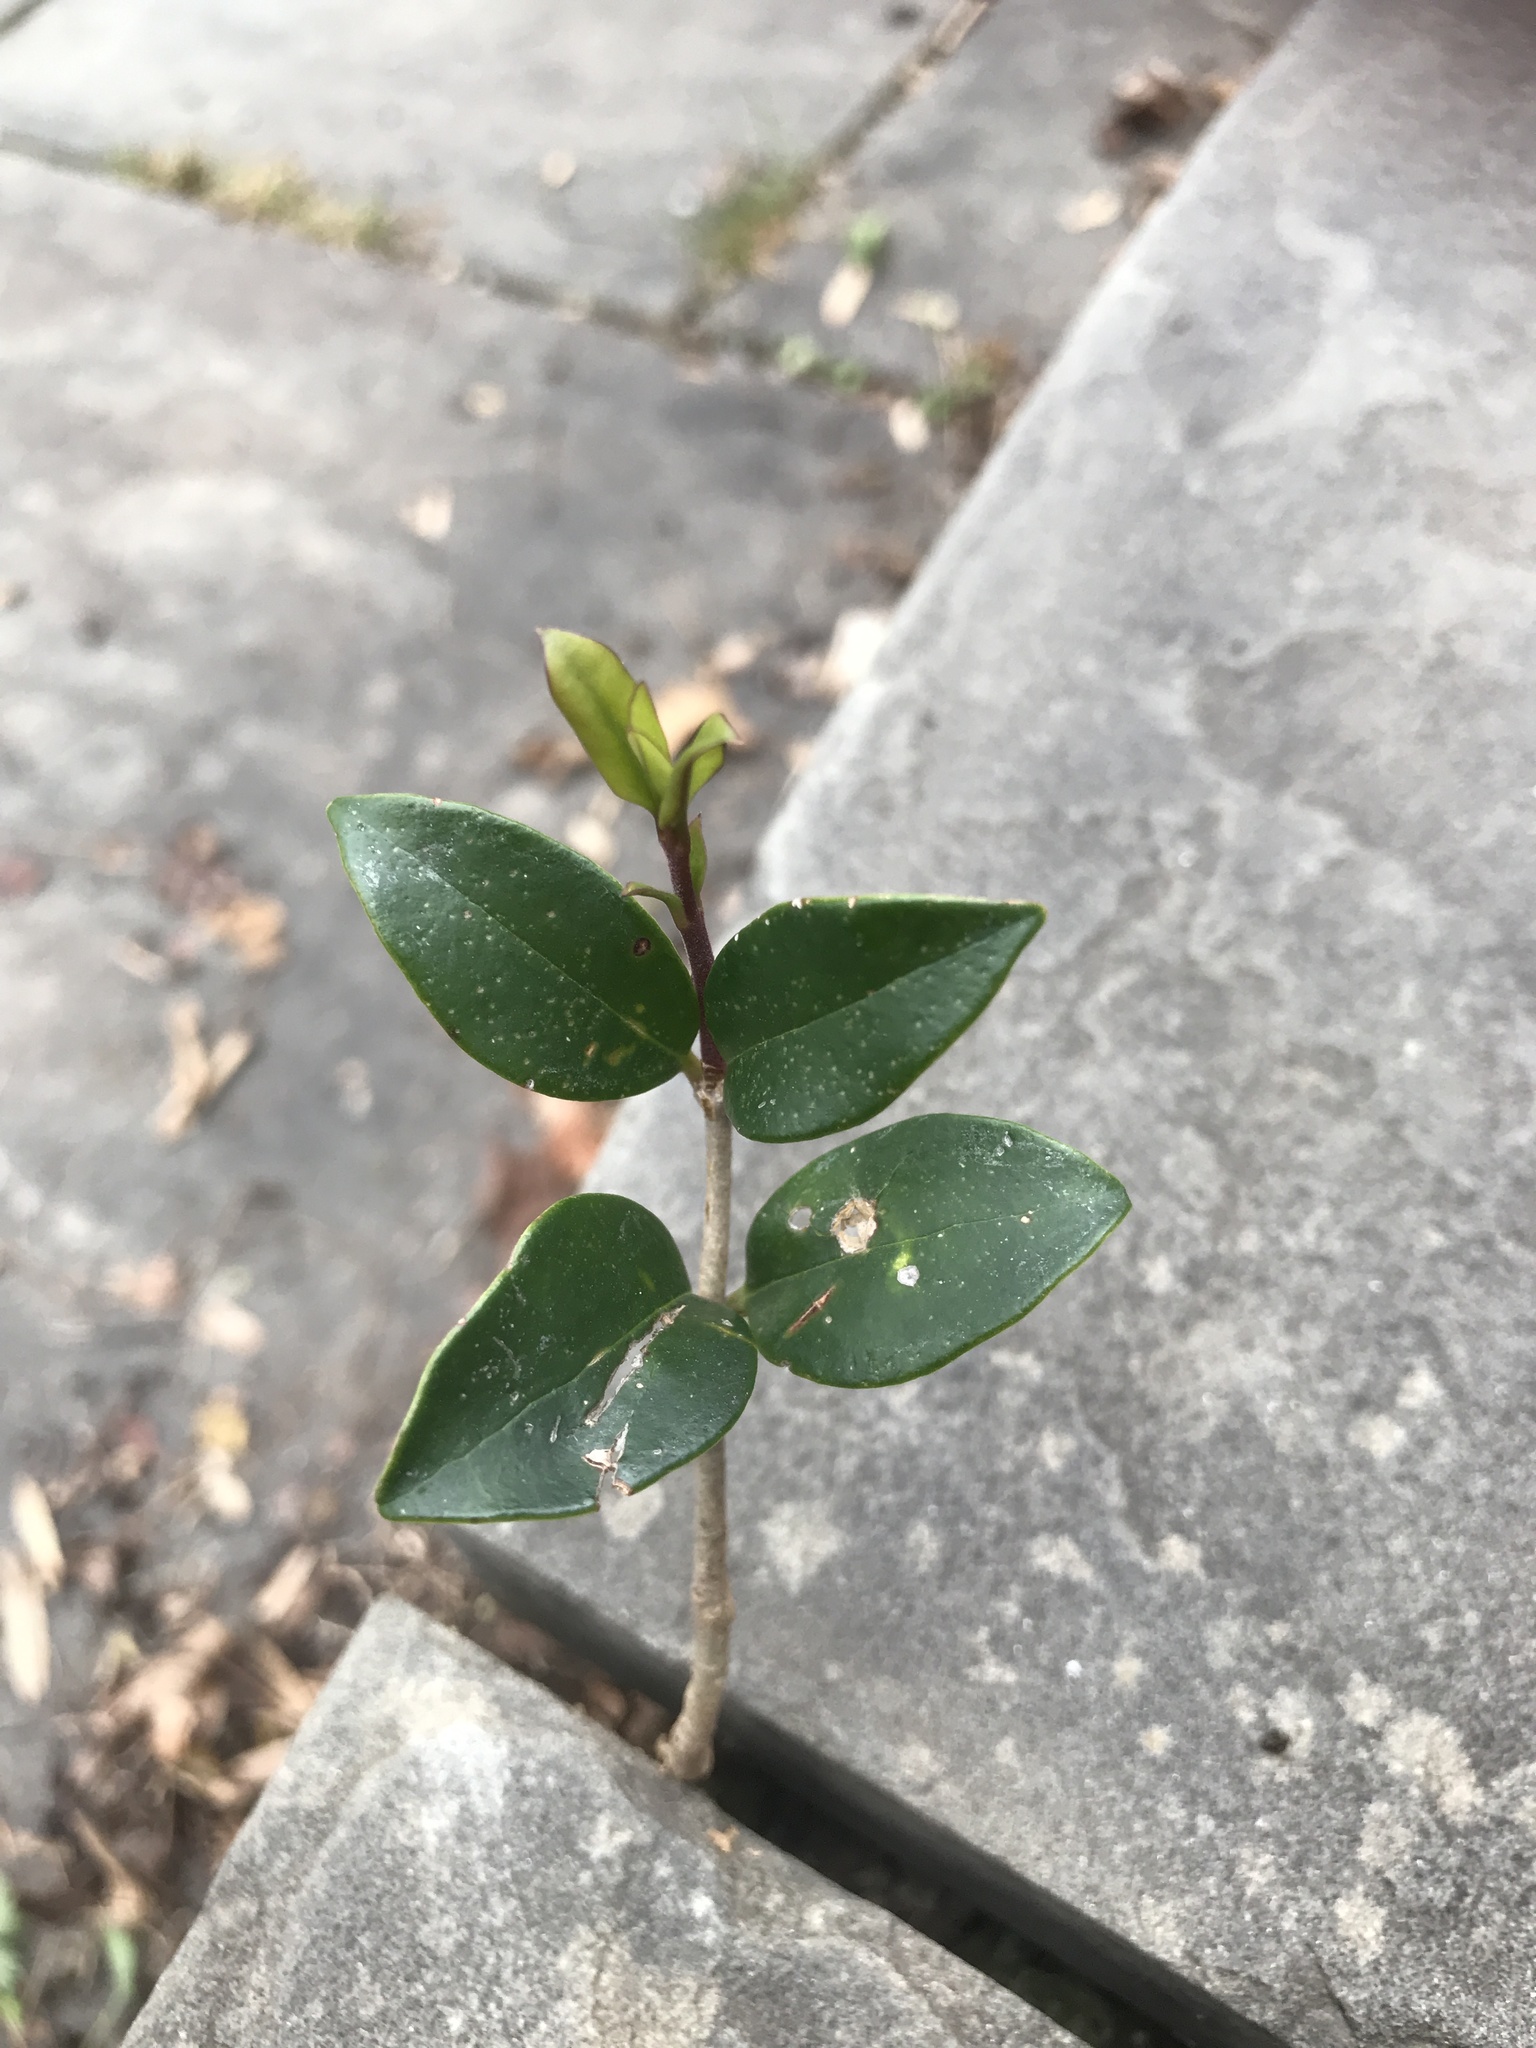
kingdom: Plantae
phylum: Tracheophyta
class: Magnoliopsida
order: Lamiales
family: Oleaceae
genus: Ligustrum
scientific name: Ligustrum japonicum
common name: Japanese privet
